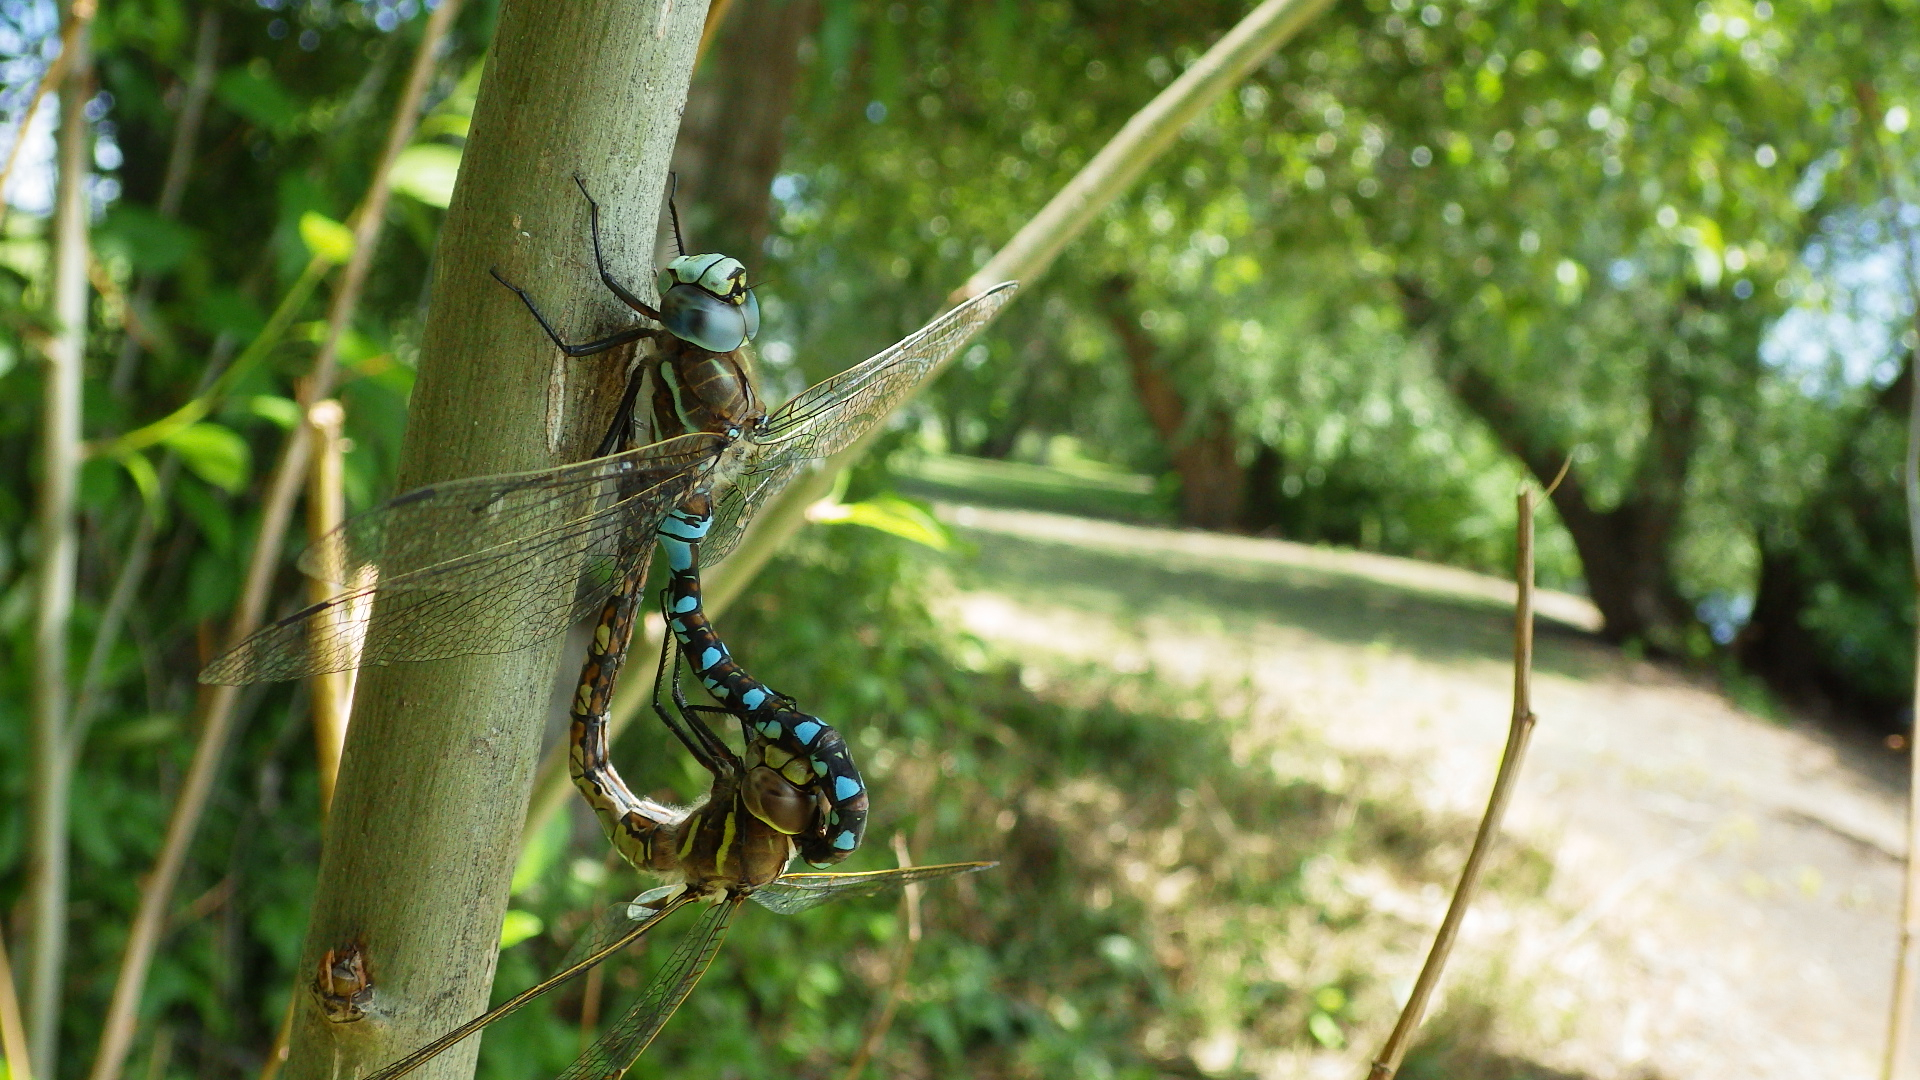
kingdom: Animalia
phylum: Arthropoda
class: Insecta
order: Odonata
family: Aeshnidae
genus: Rhionaeschna
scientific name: Rhionaeschna californica
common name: California darner
